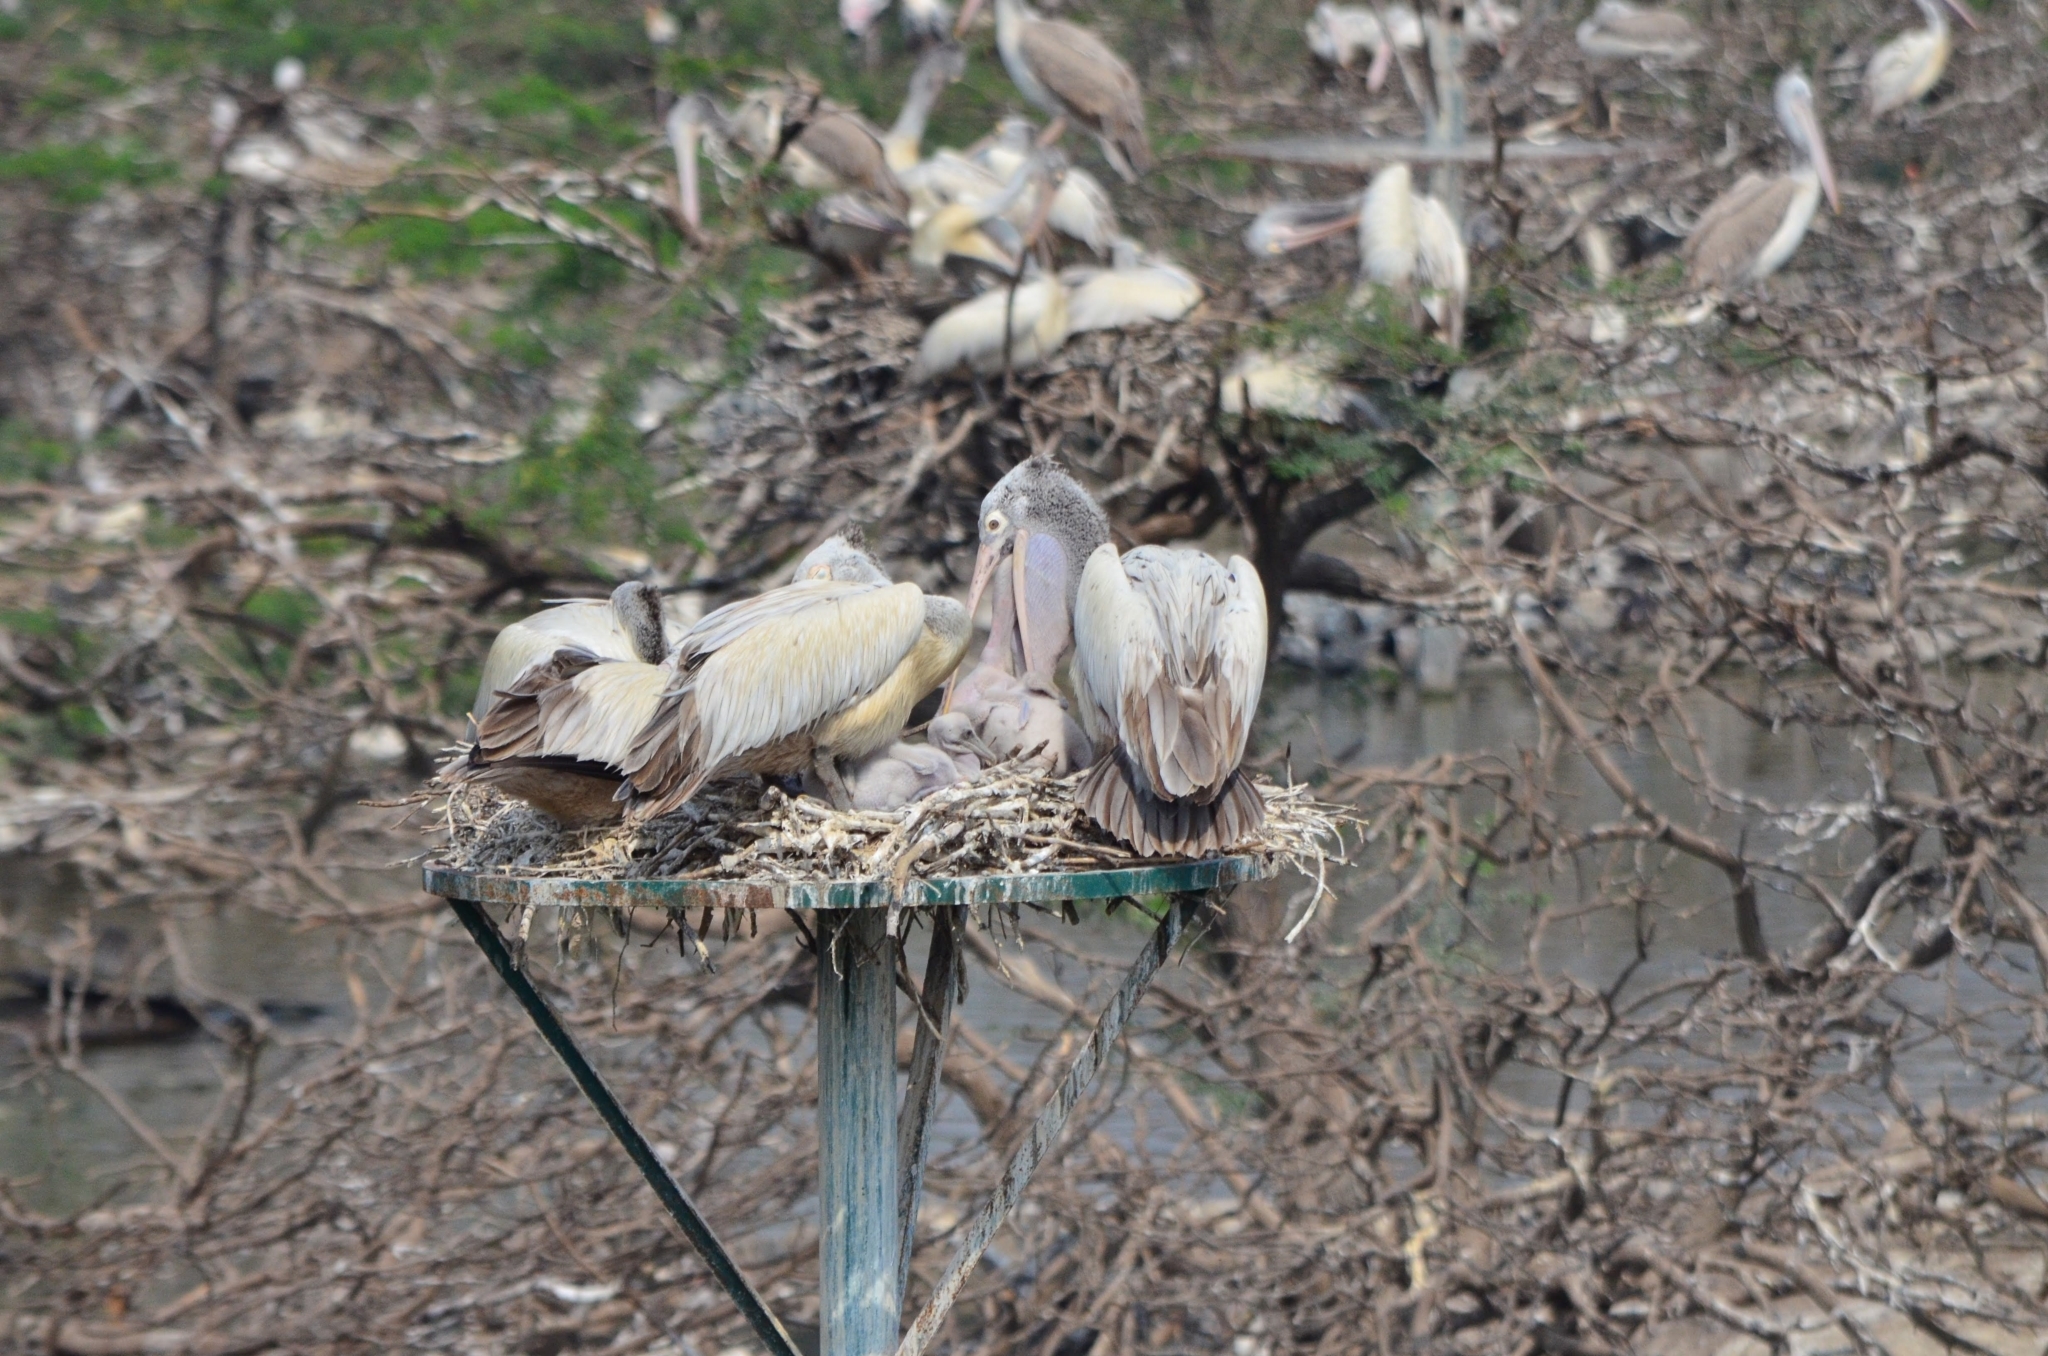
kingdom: Animalia
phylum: Chordata
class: Aves
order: Pelecaniformes
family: Pelecanidae
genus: Pelecanus
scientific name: Pelecanus philippensis
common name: Spot-billed pelican
